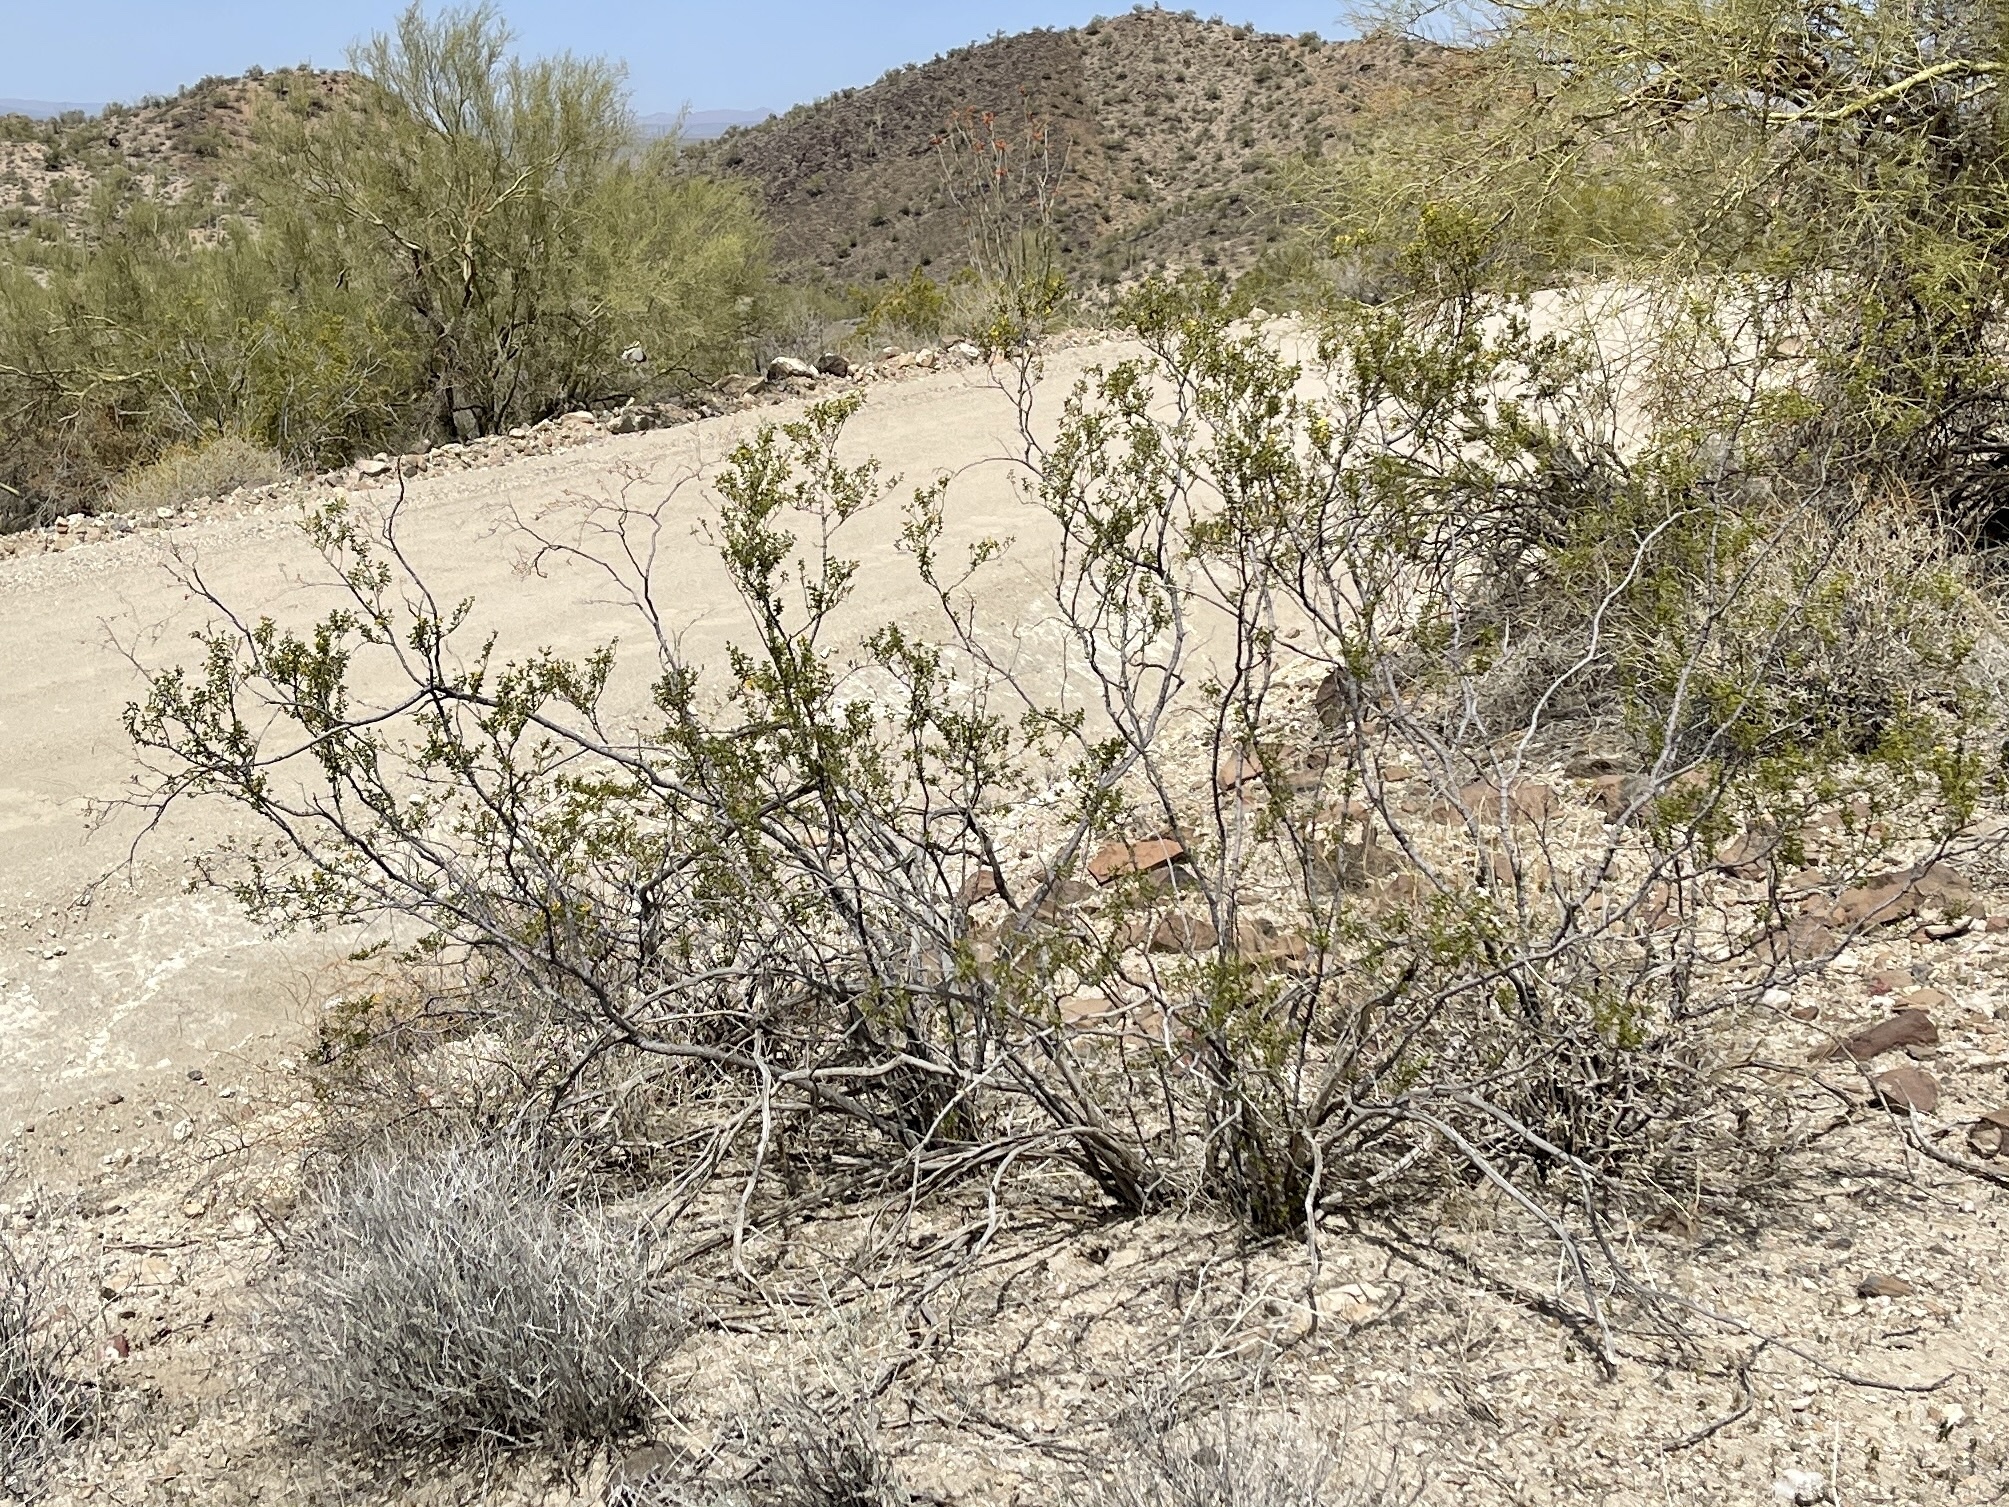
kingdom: Plantae
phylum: Tracheophyta
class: Magnoliopsida
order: Zygophyllales
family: Zygophyllaceae
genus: Larrea
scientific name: Larrea tridentata
